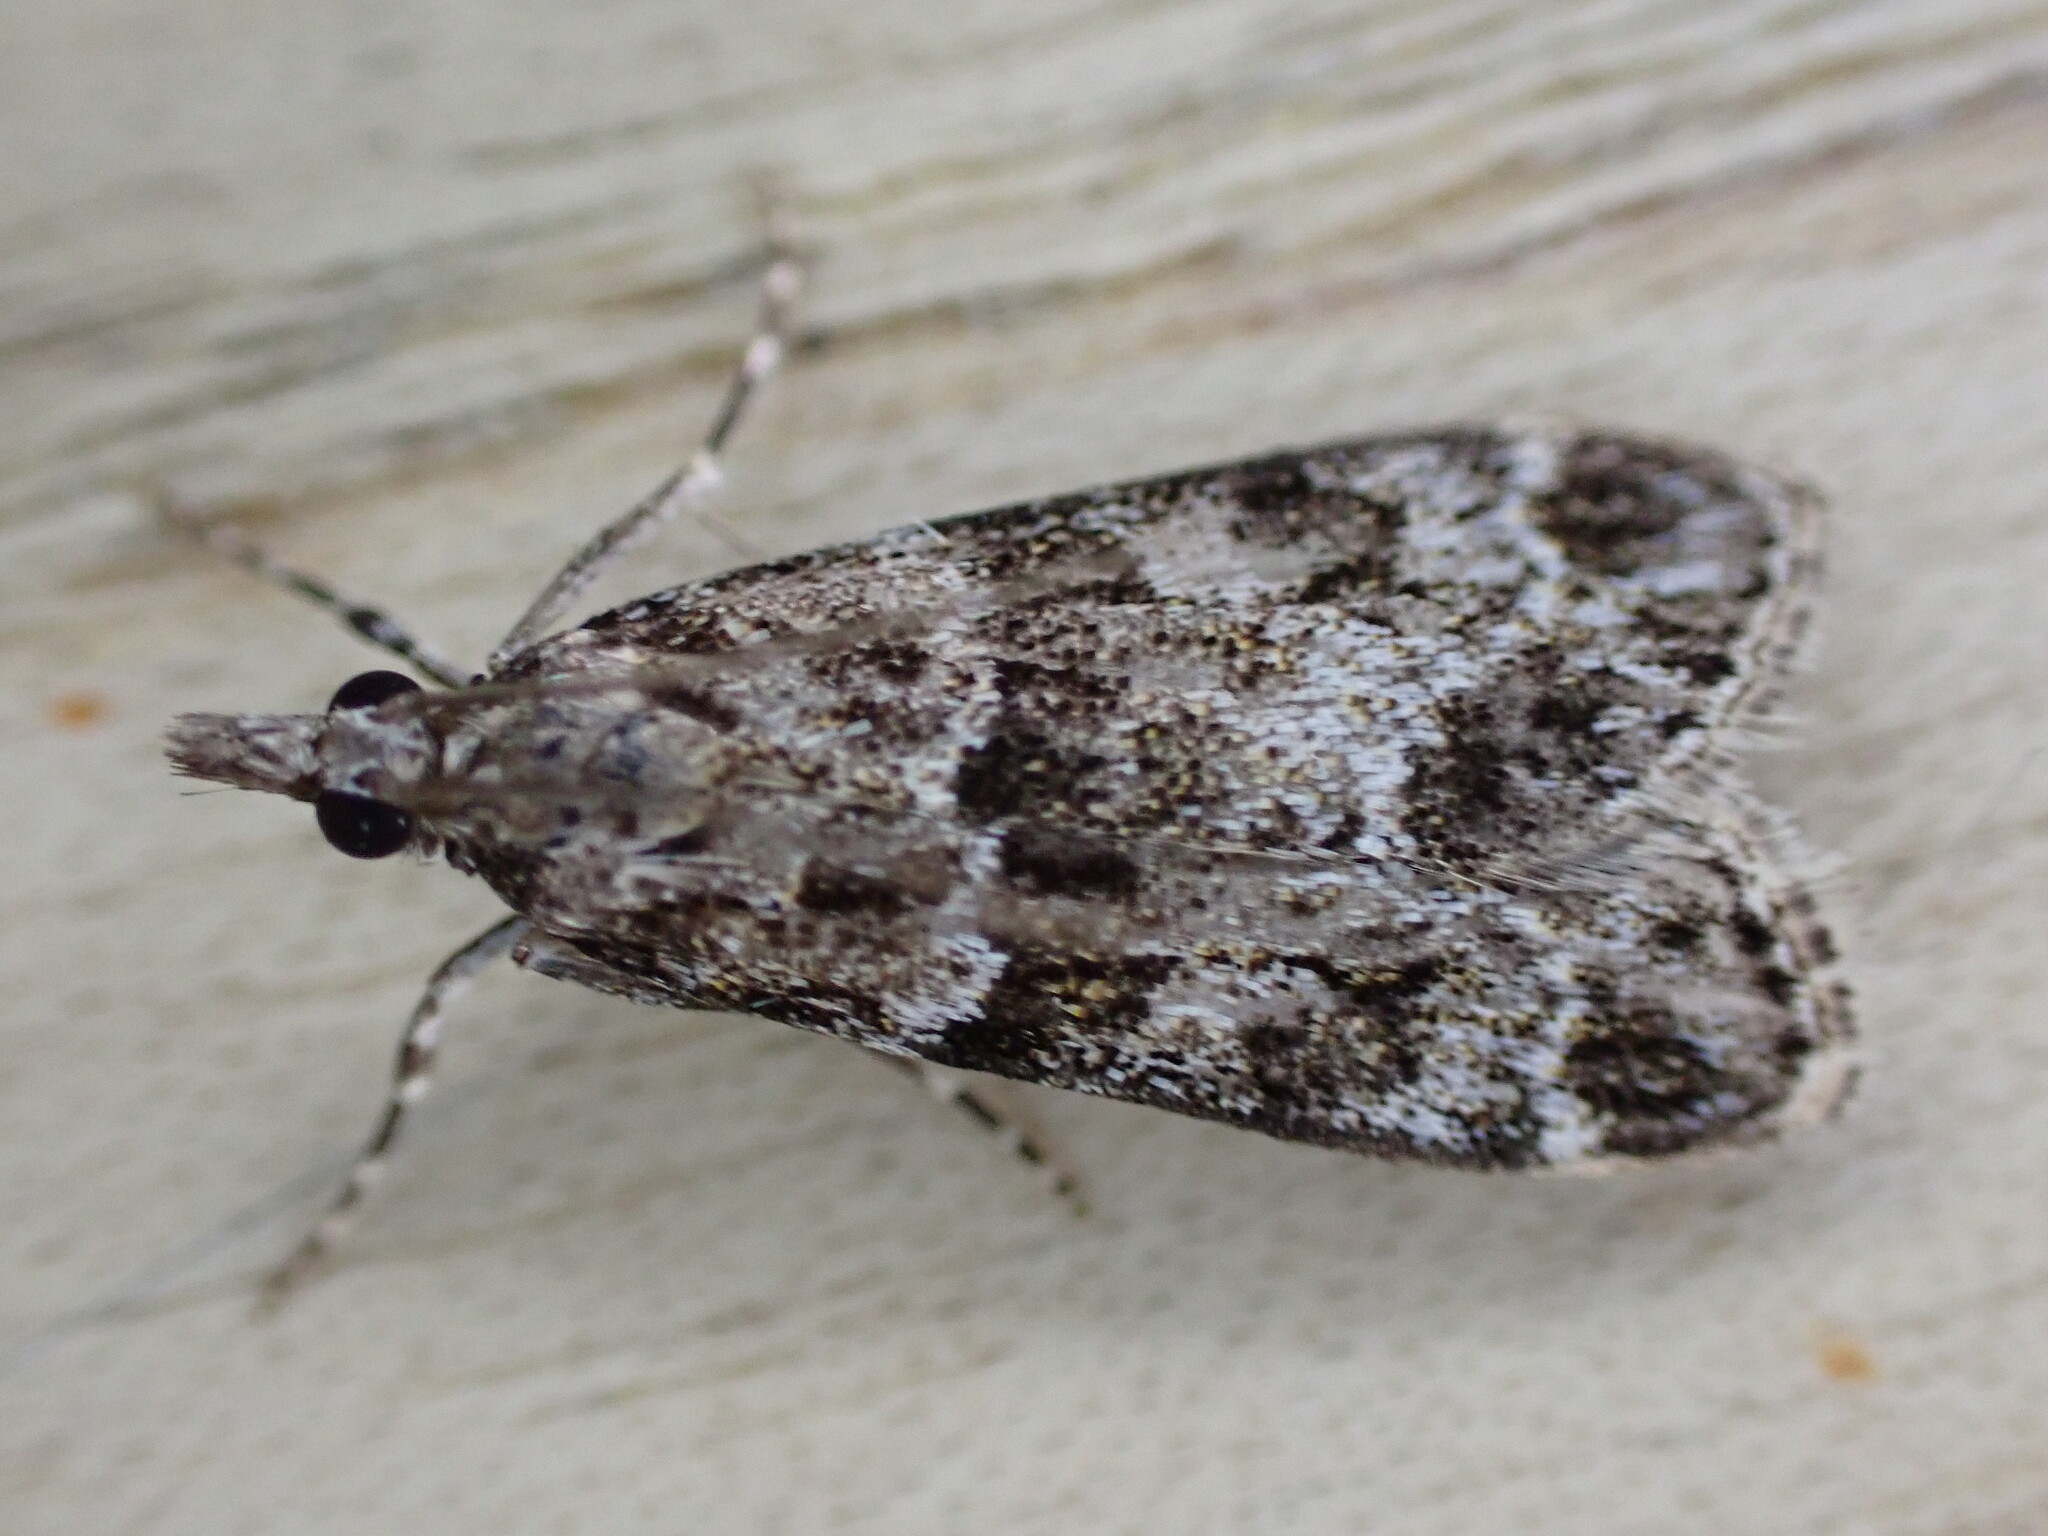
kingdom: Animalia
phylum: Arthropoda
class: Insecta
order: Lepidoptera
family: Crambidae
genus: Eudonia
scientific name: Eudonia mercurella
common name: Small grey
